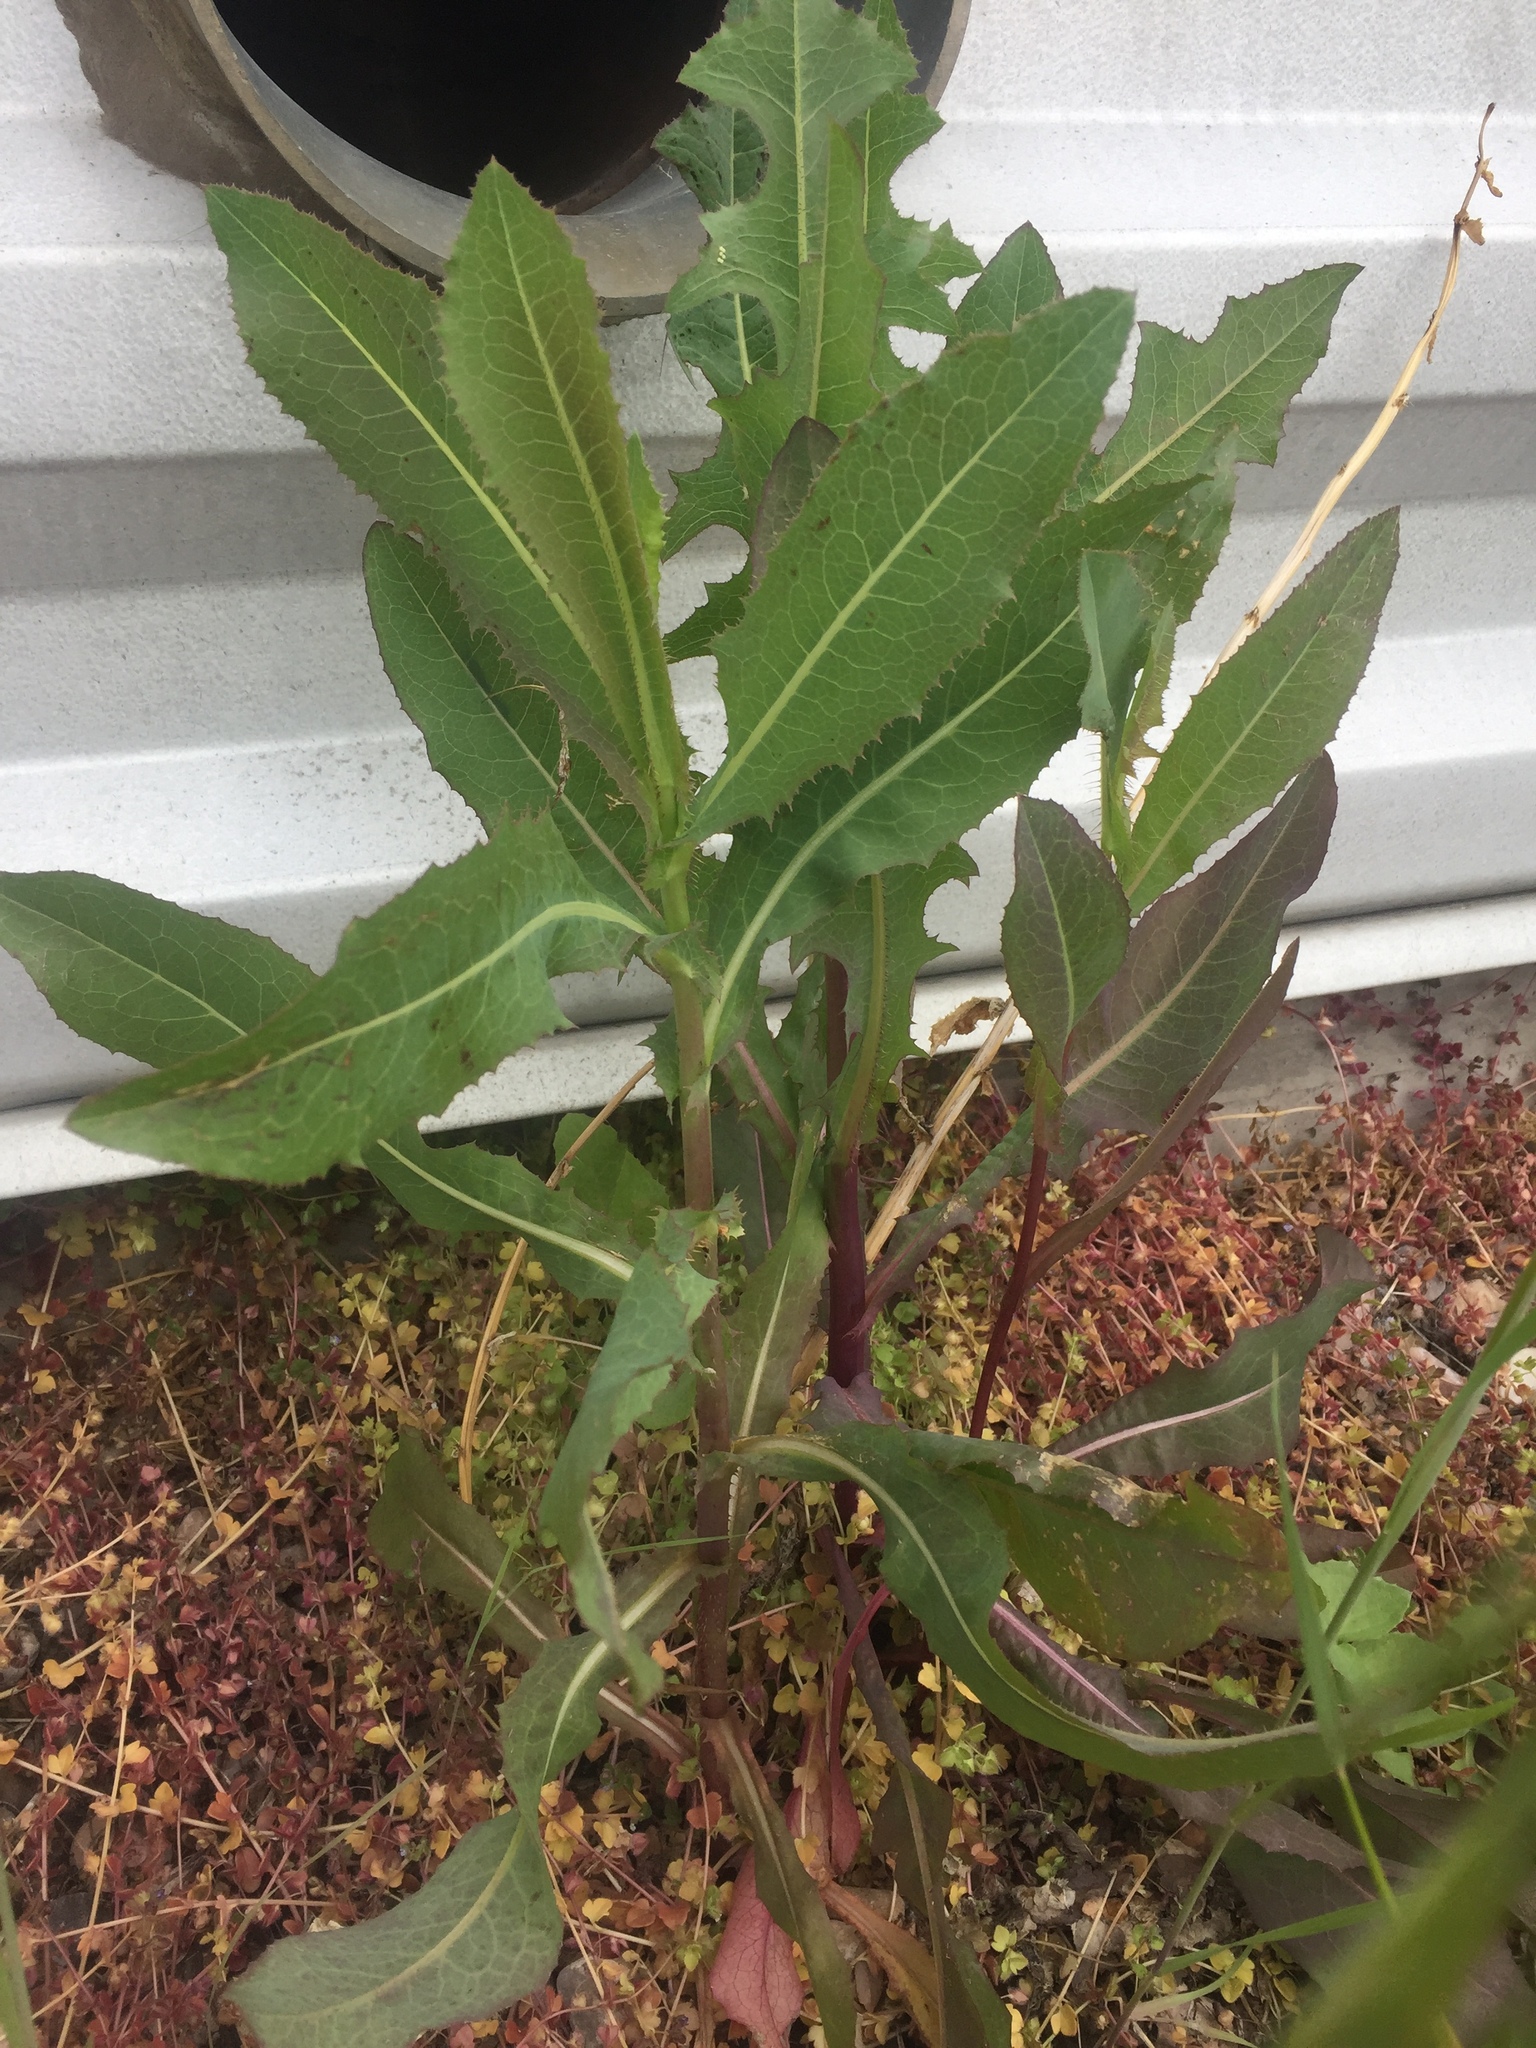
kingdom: Plantae
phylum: Tracheophyta
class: Magnoliopsida
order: Asterales
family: Asteraceae
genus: Lactuca
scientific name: Lactuca serriola
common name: Prickly lettuce
